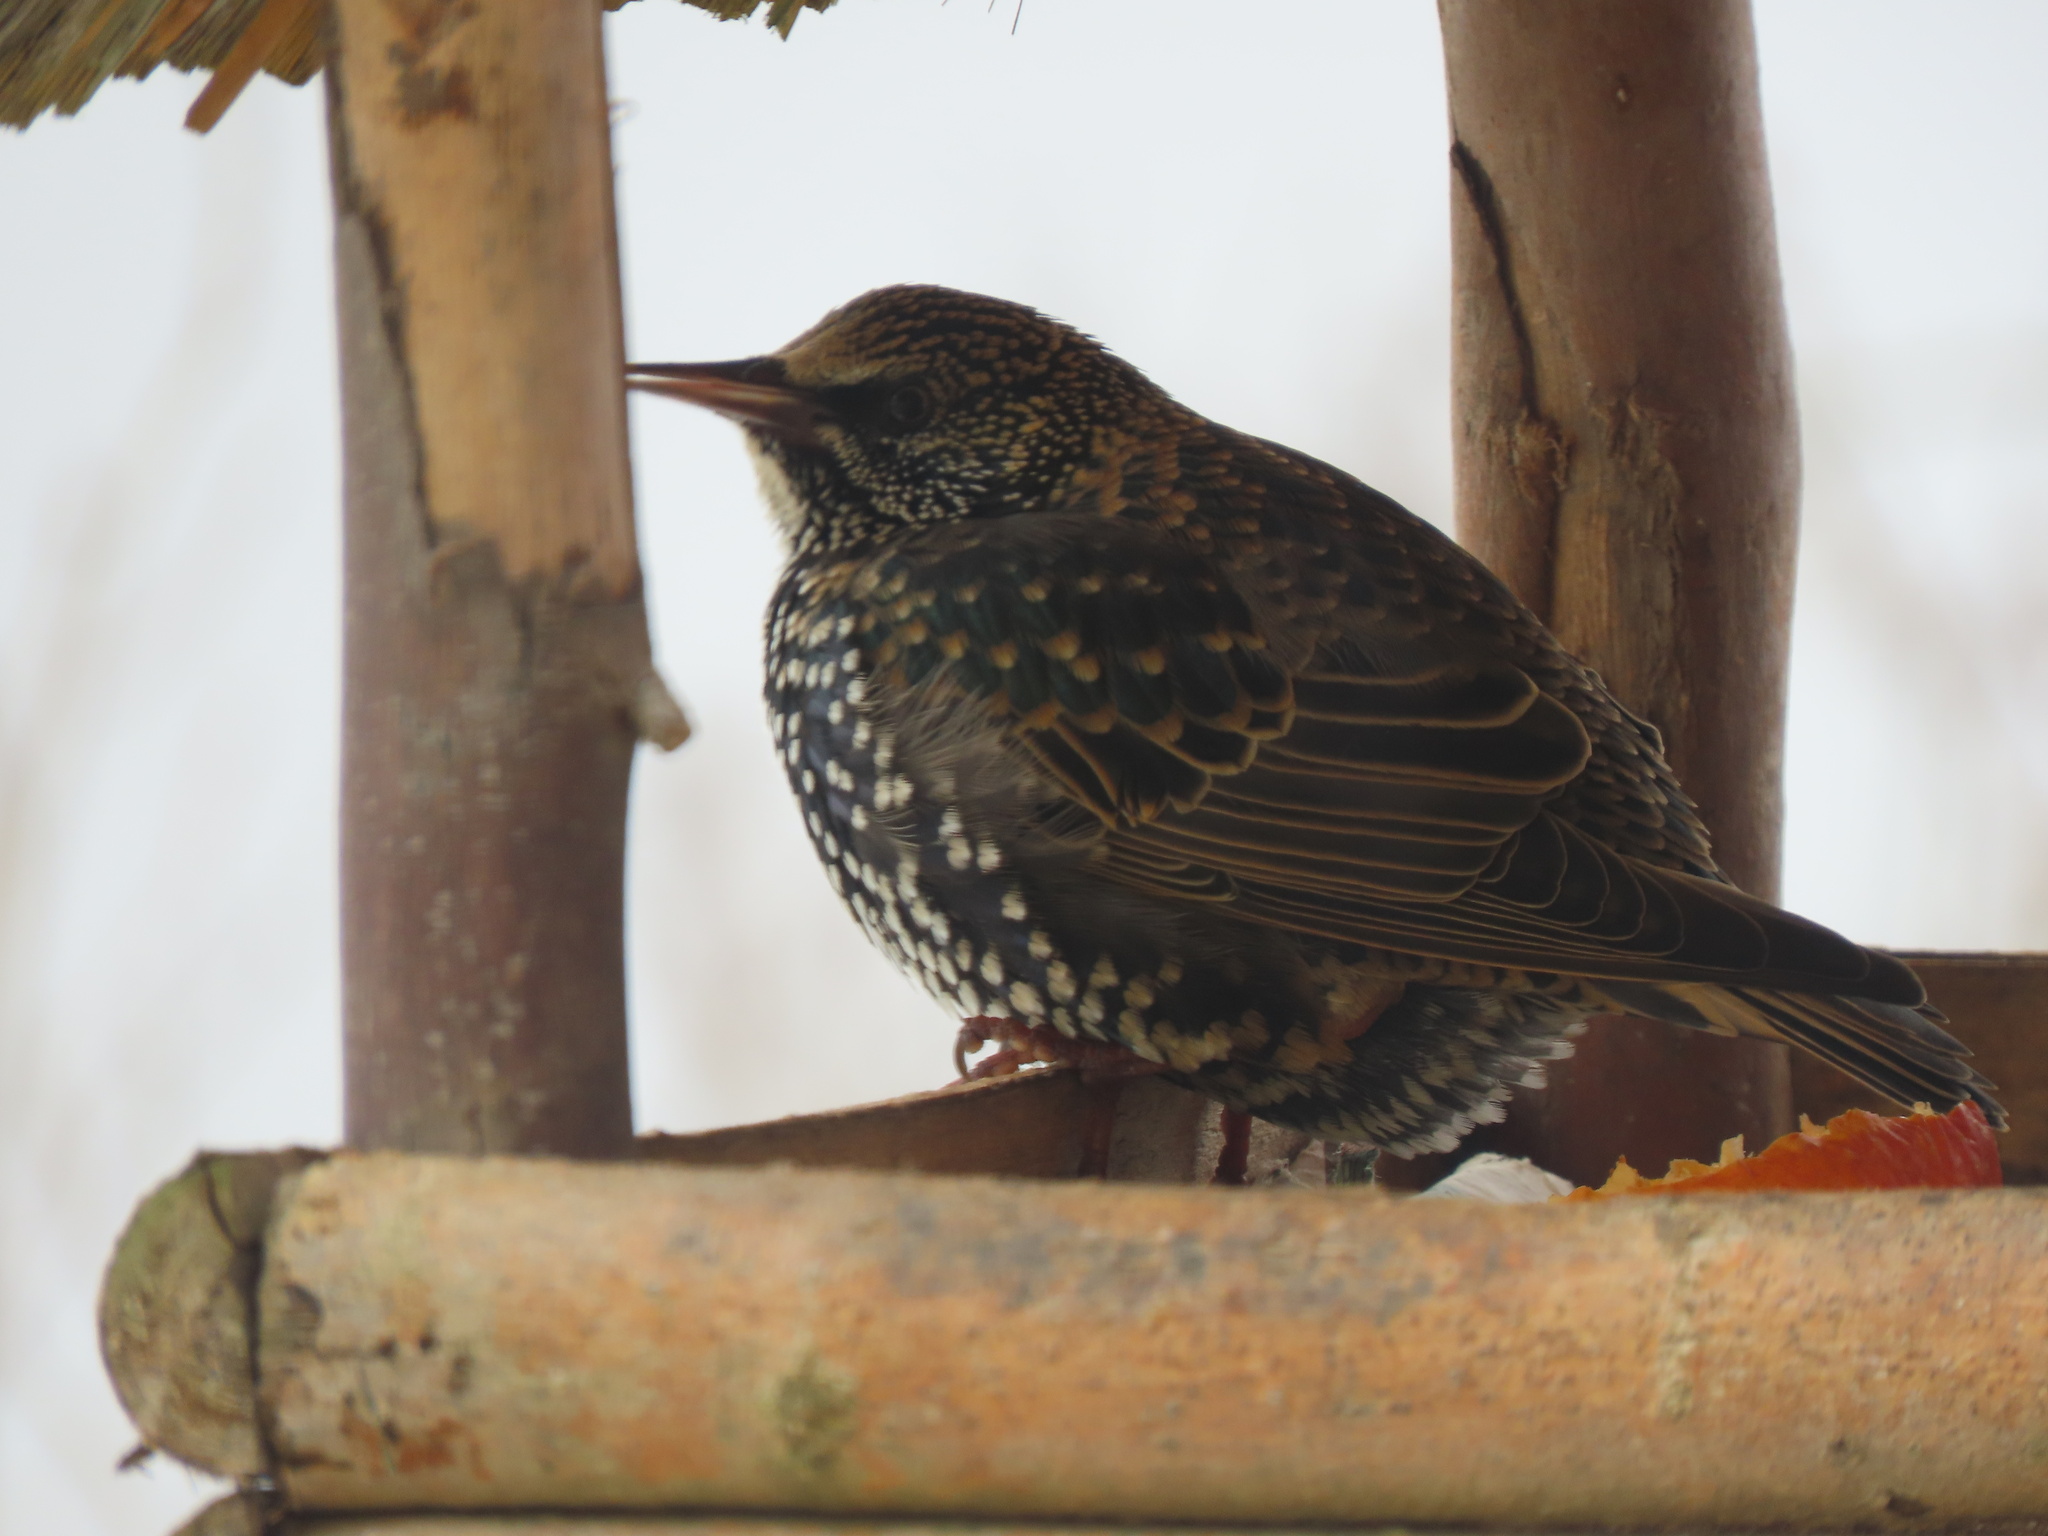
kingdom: Animalia
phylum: Chordata
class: Aves
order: Passeriformes
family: Sturnidae
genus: Sturnus
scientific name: Sturnus vulgaris
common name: Common starling
